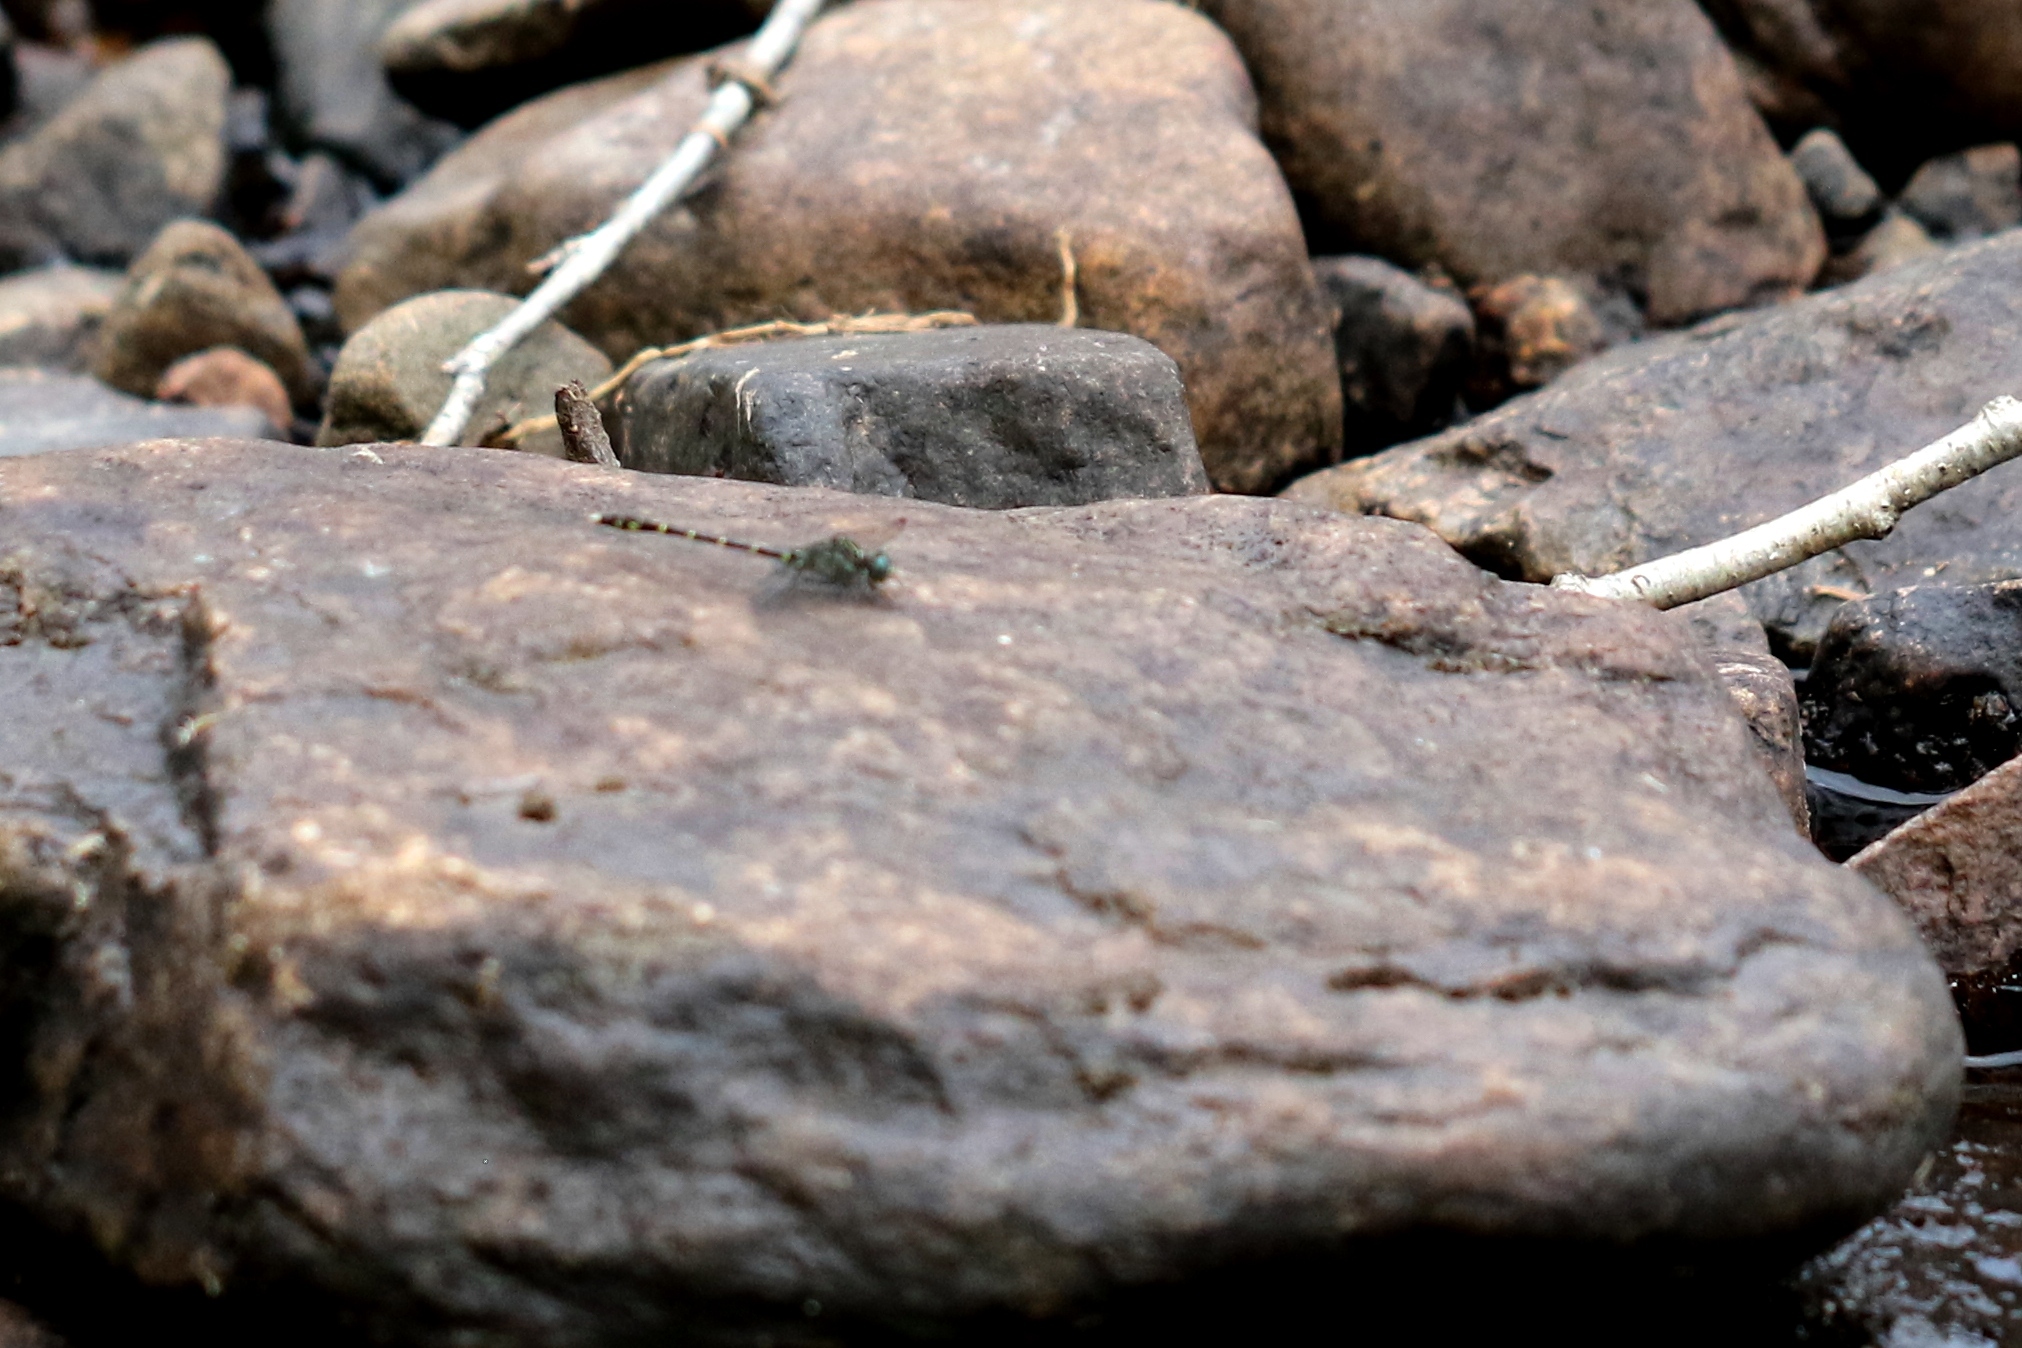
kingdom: Animalia
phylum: Arthropoda
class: Insecta
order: Odonata
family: Gomphidae
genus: Stylogomphus
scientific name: Stylogomphus albistylus
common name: Eastern least clubtail
